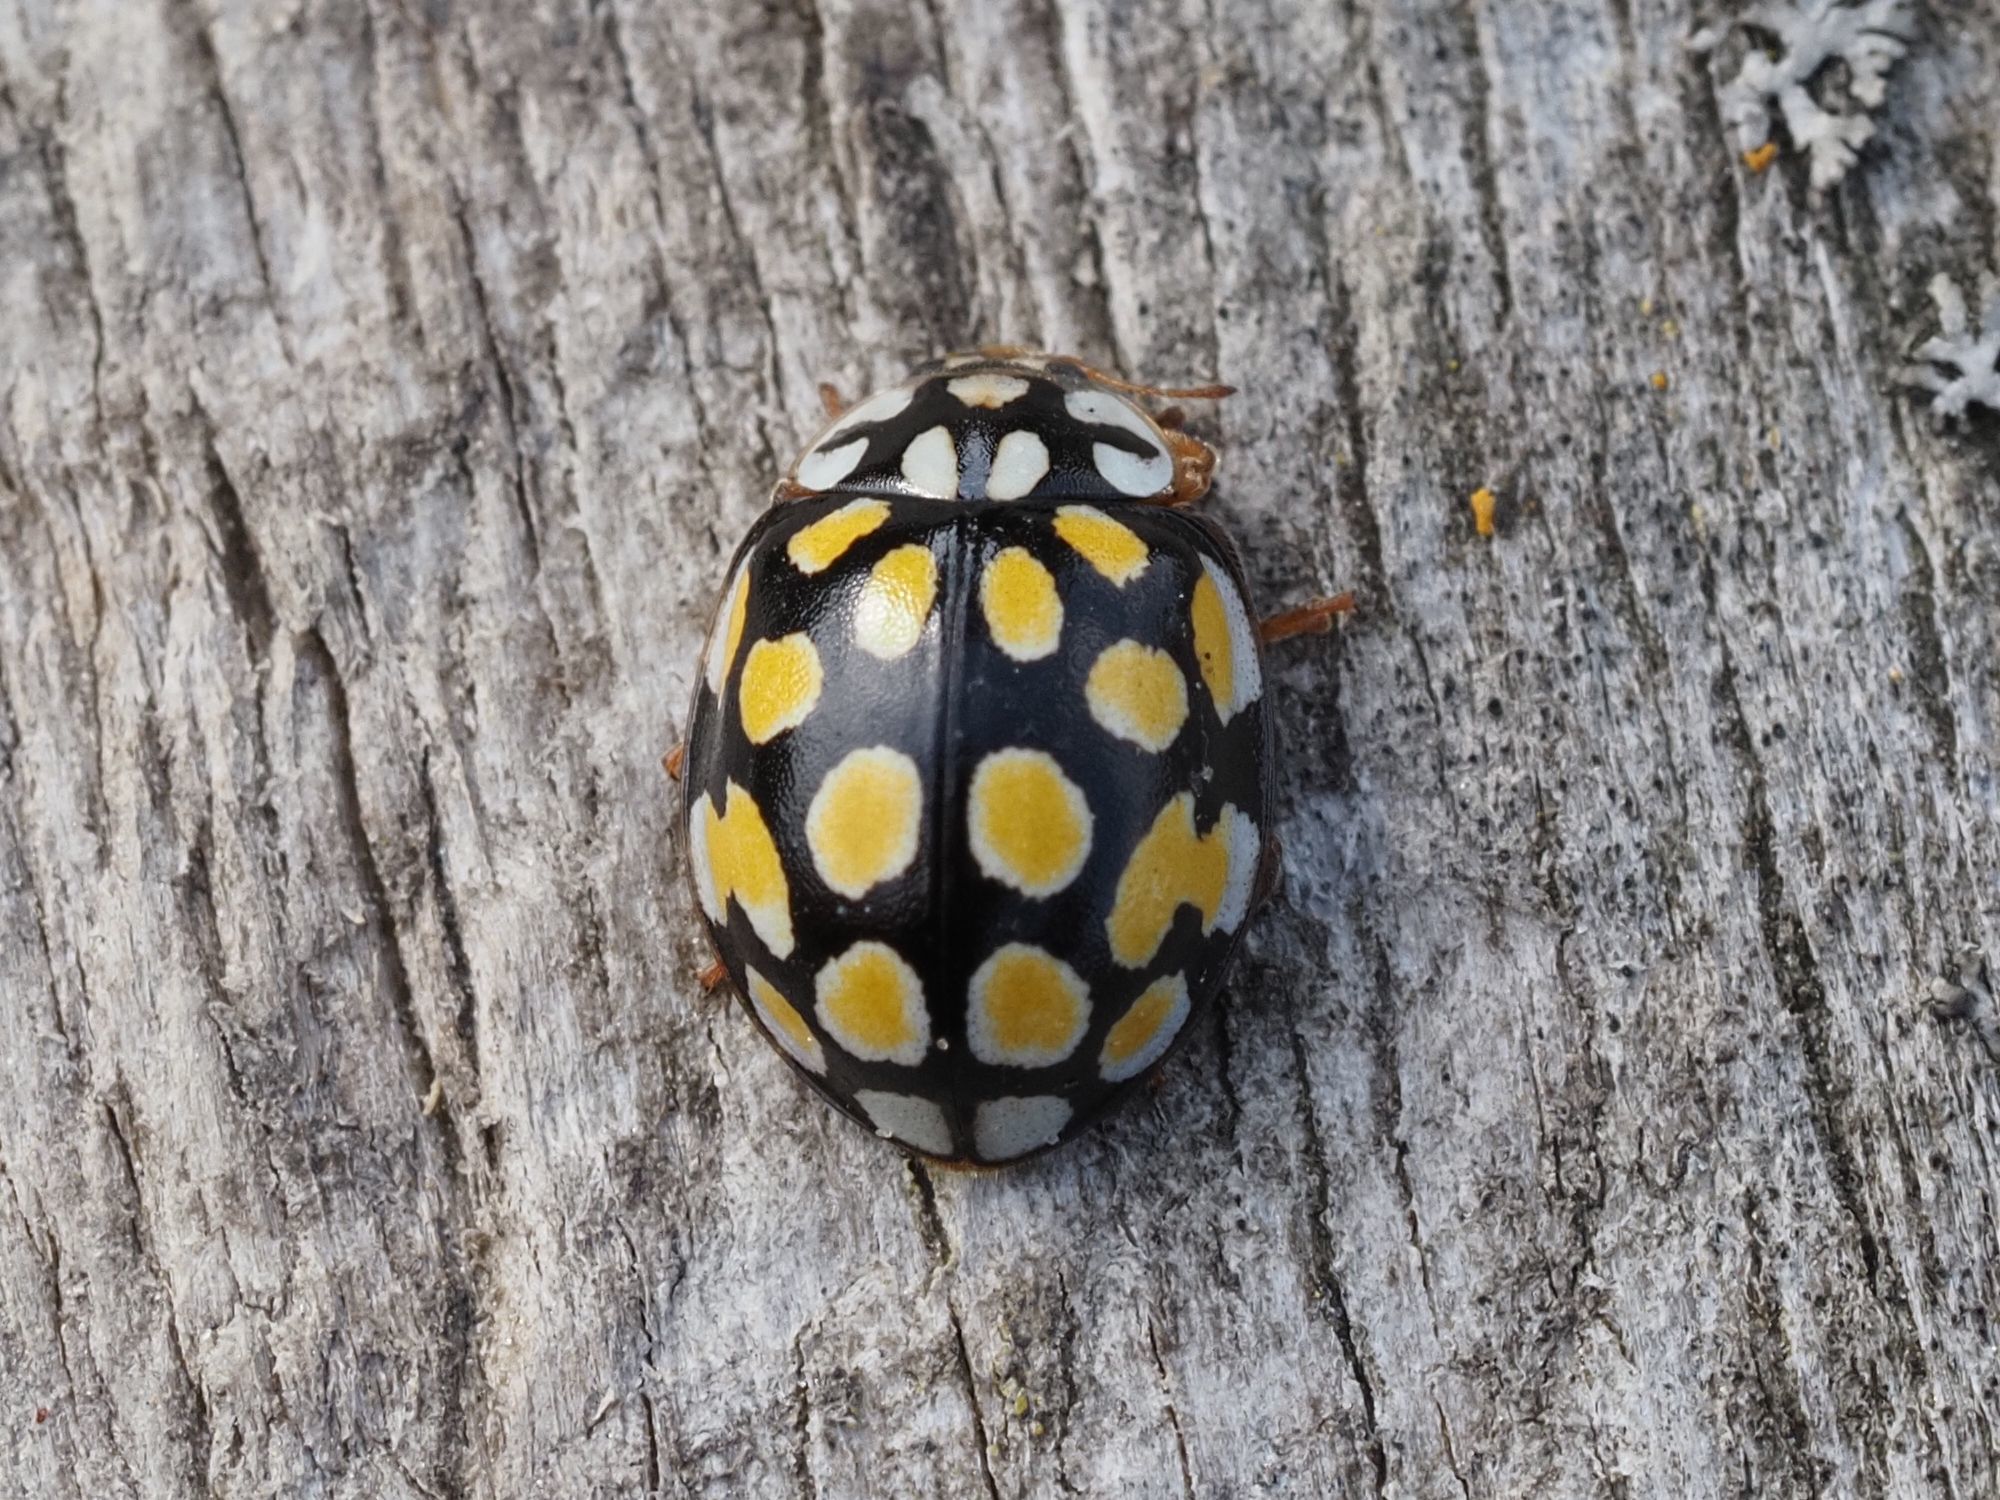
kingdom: Animalia
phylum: Arthropoda
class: Insecta
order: Coleoptera
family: Coccinellidae
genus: Sospita
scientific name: Sospita vigintiguttata
